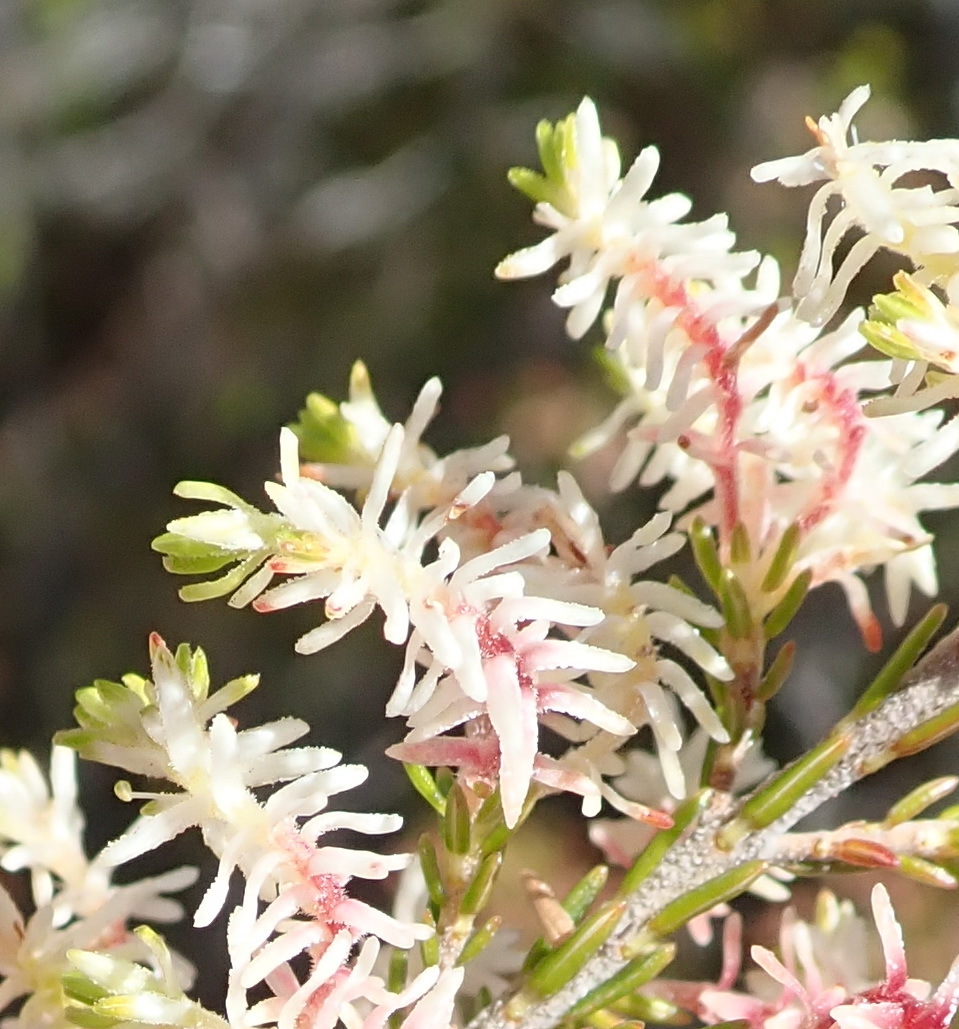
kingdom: Plantae
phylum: Tracheophyta
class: Magnoliopsida
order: Ericales
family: Ericaceae
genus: Erica
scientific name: Erica glomiflora
